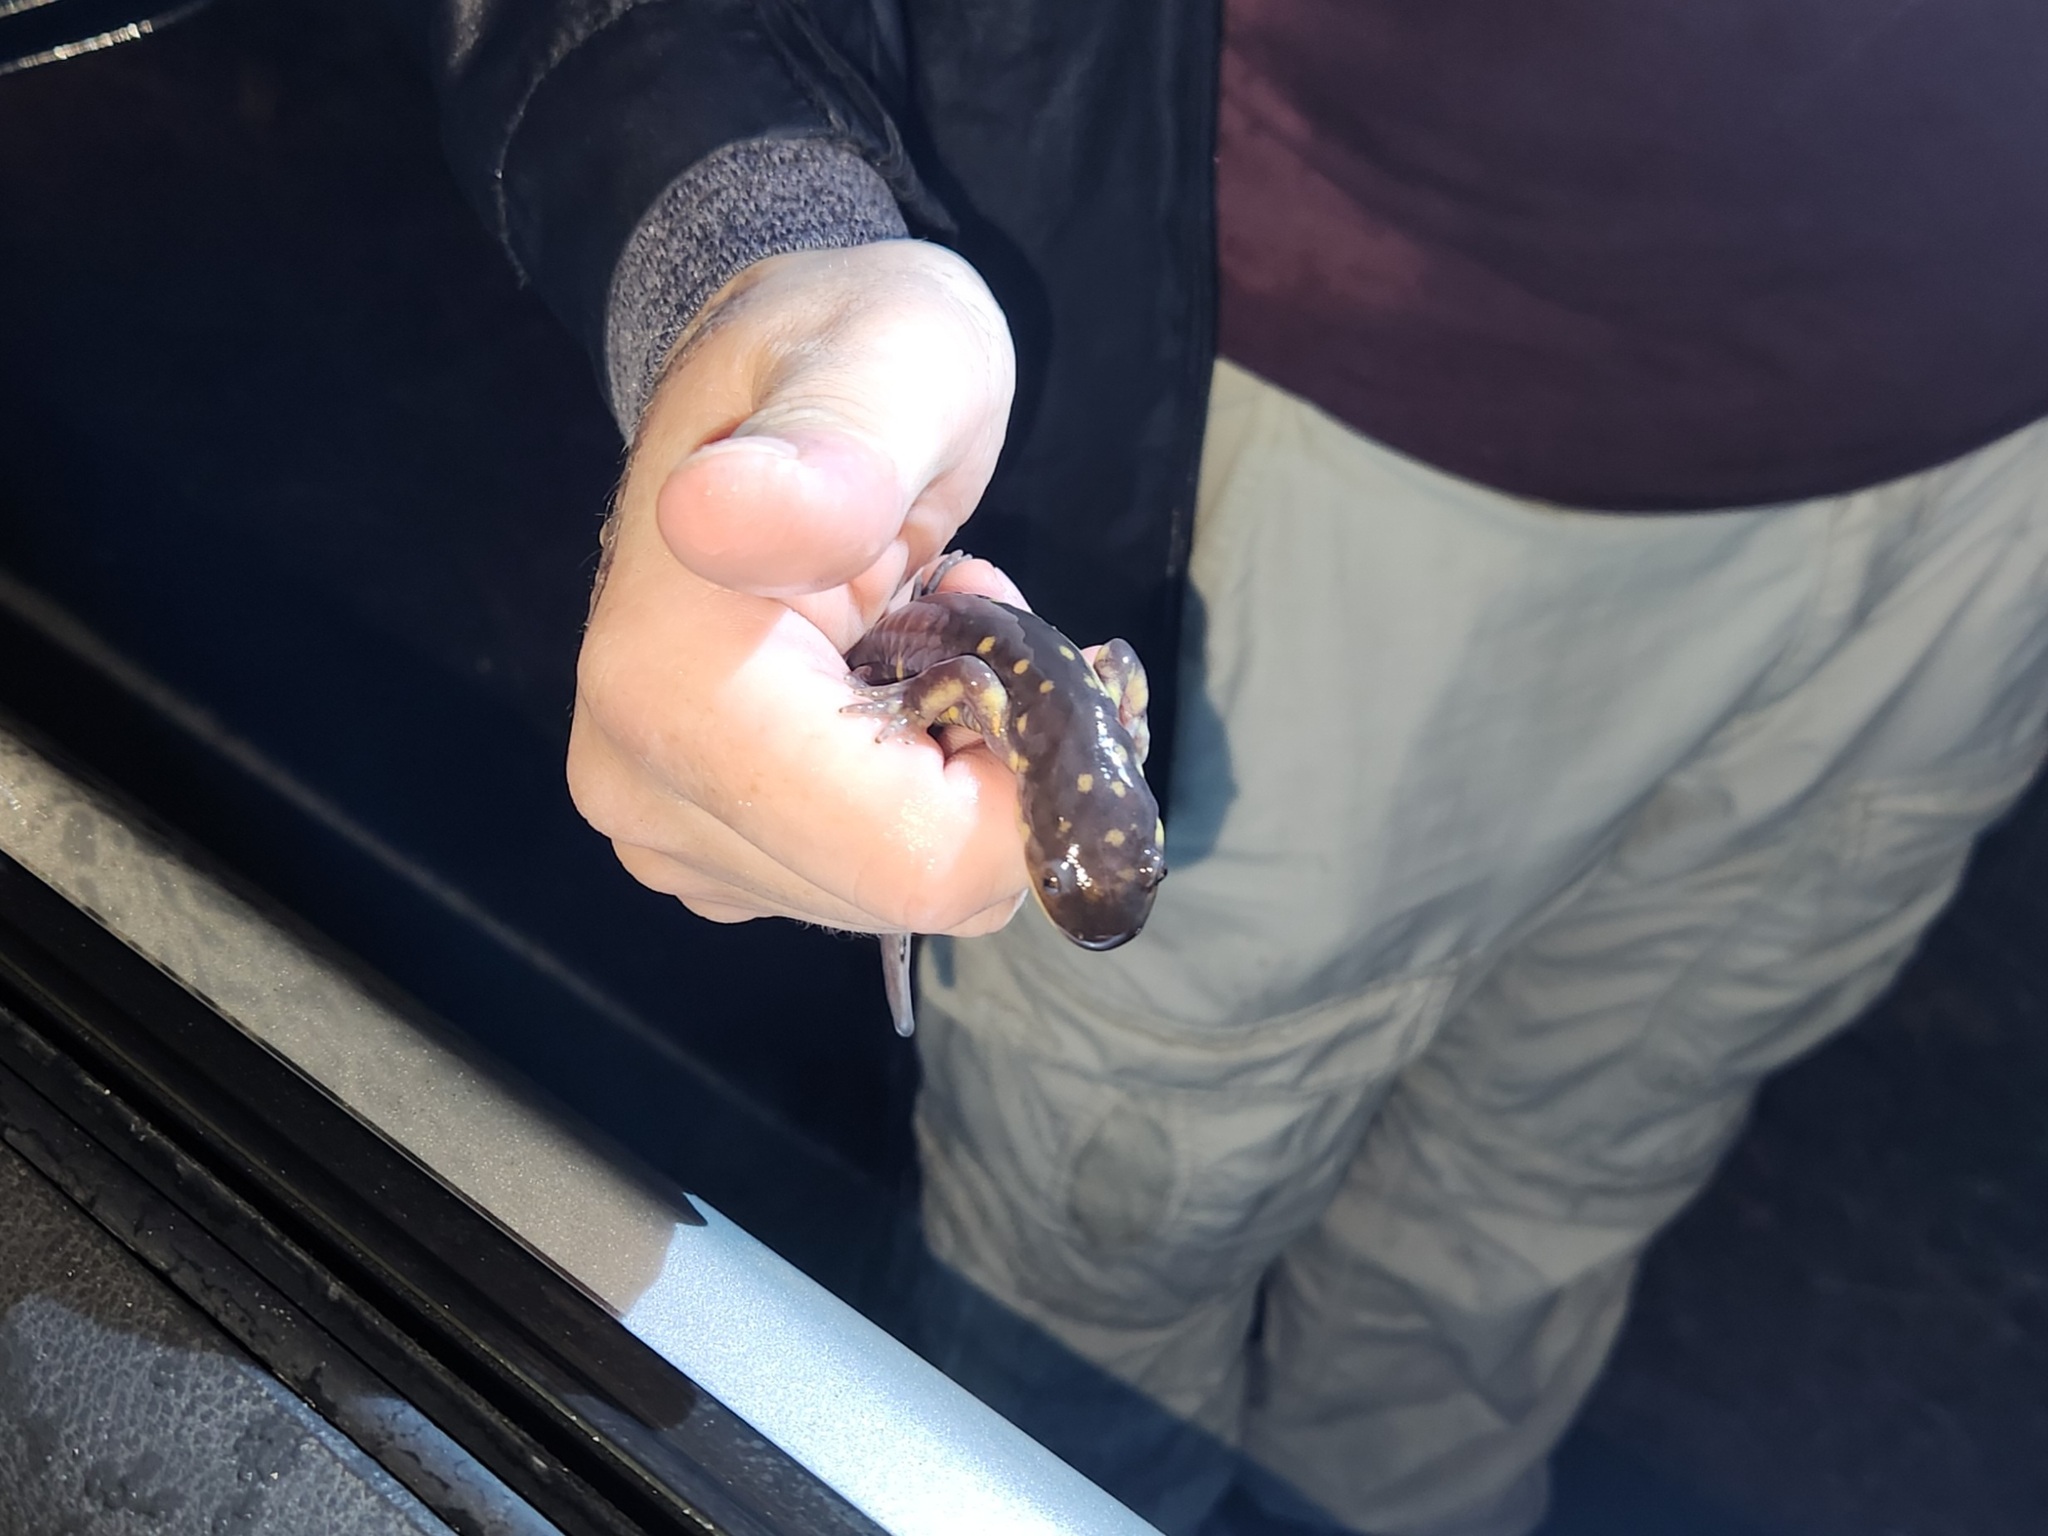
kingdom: Animalia
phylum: Chordata
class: Amphibia
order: Caudata
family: Ambystomatidae
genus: Ambystoma
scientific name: Ambystoma tigrinum
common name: Tiger salamander
